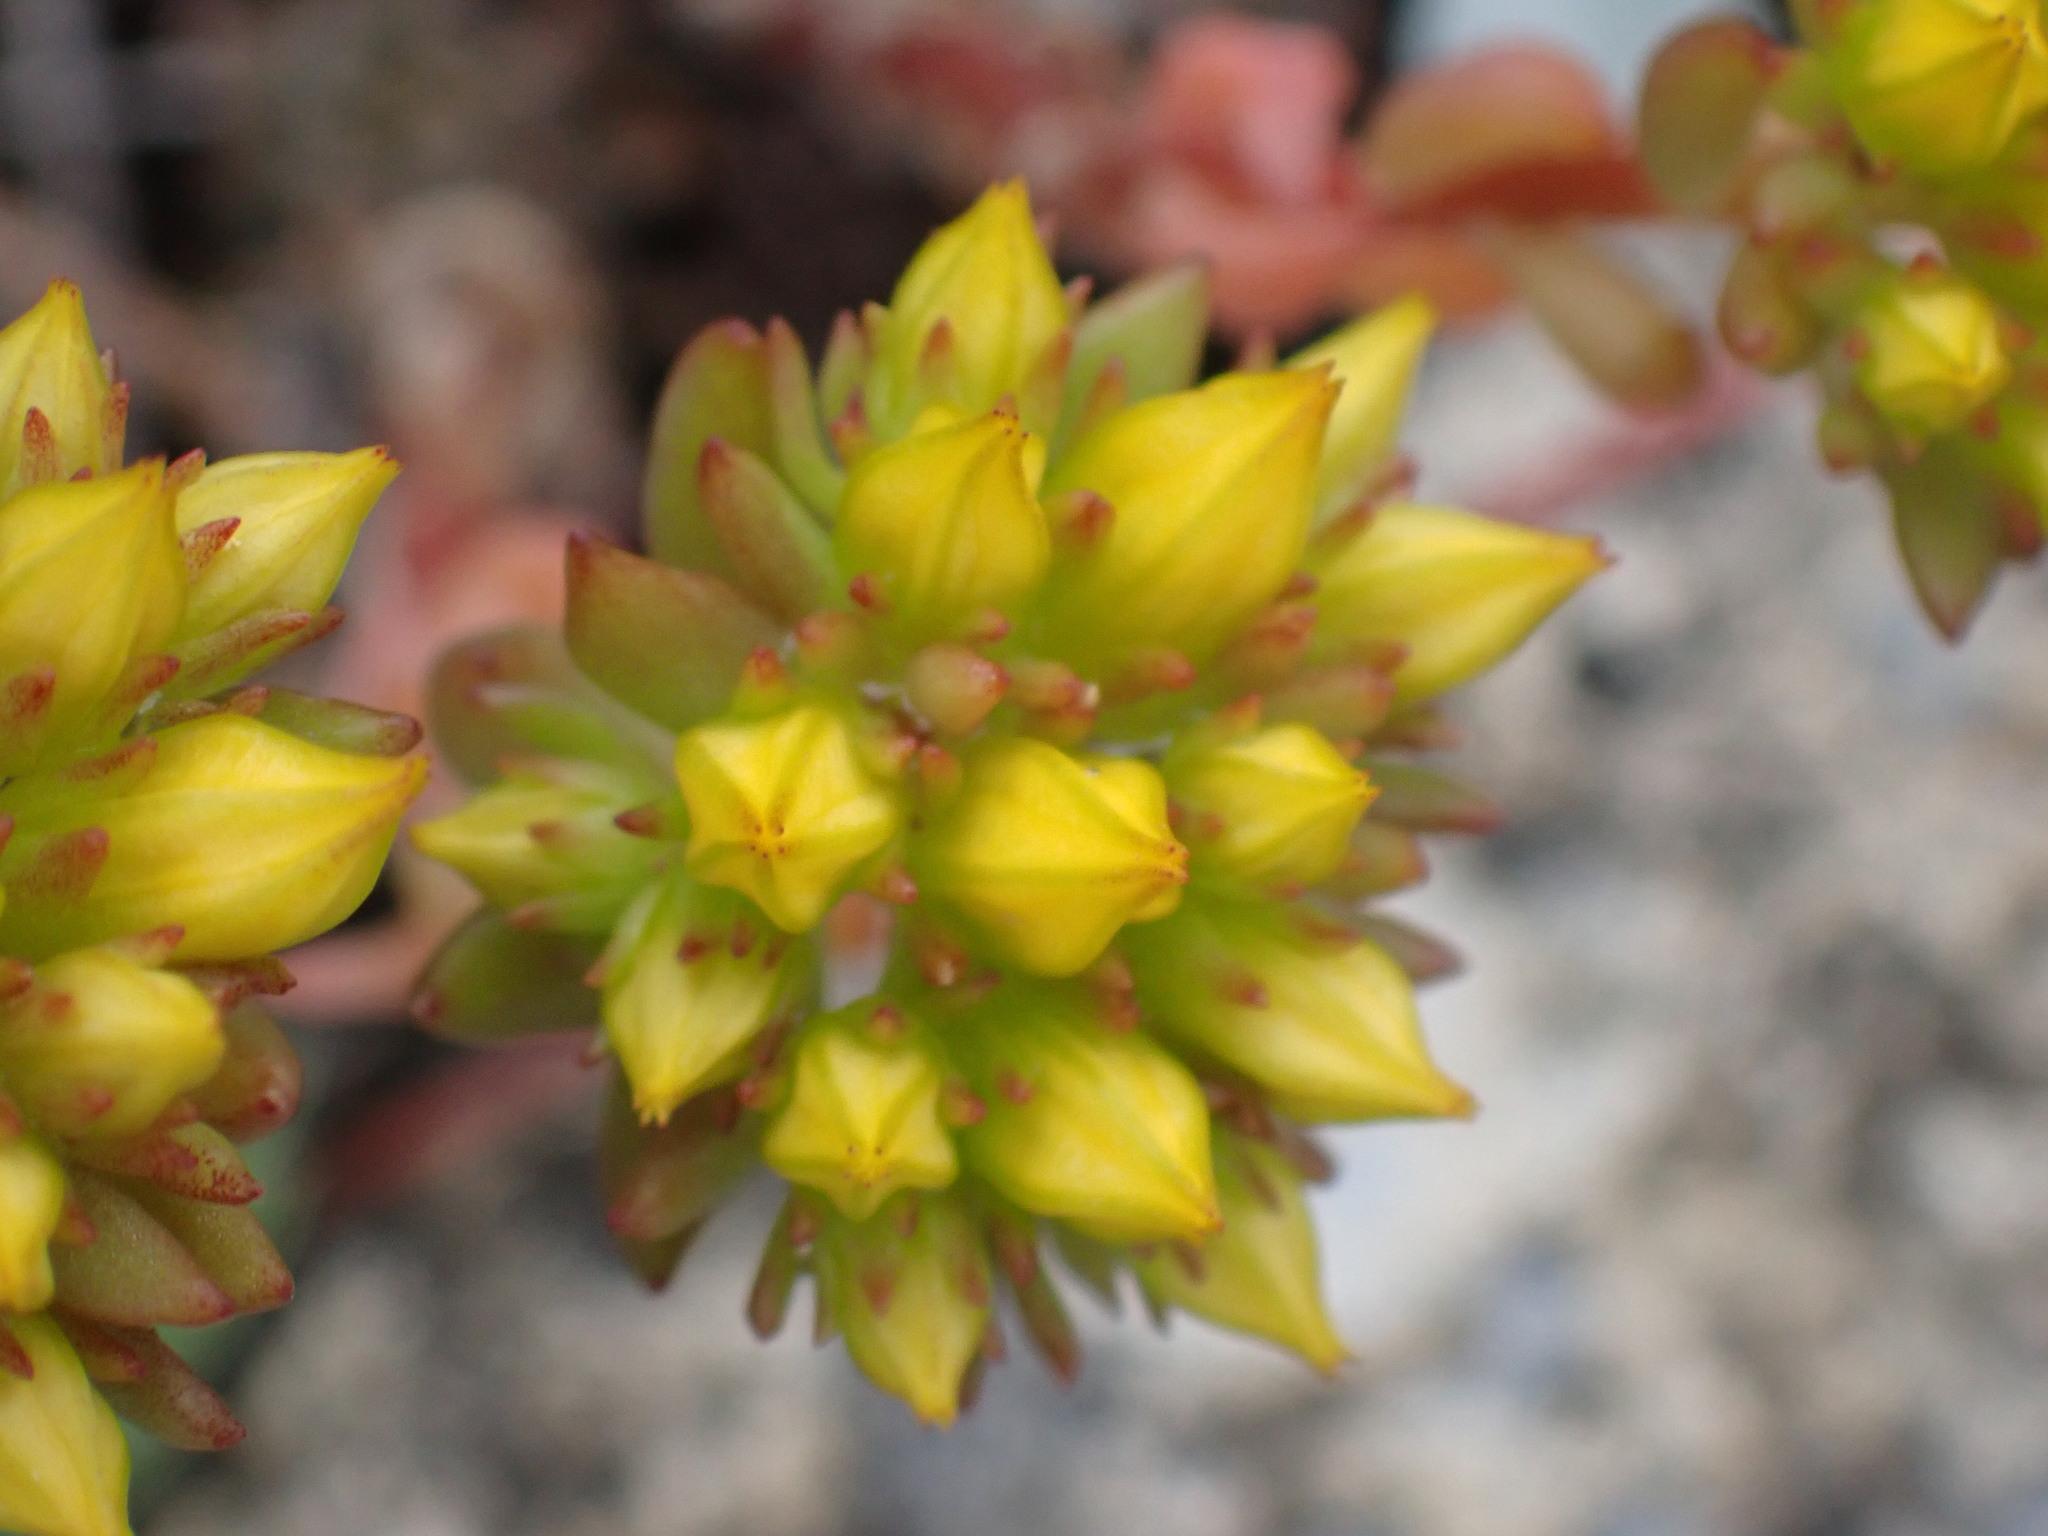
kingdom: Plantae
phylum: Tracheophyta
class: Magnoliopsida
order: Saxifragales
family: Crassulaceae
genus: Sedum
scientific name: Sedum lanceolatum
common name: Common stonecrop
